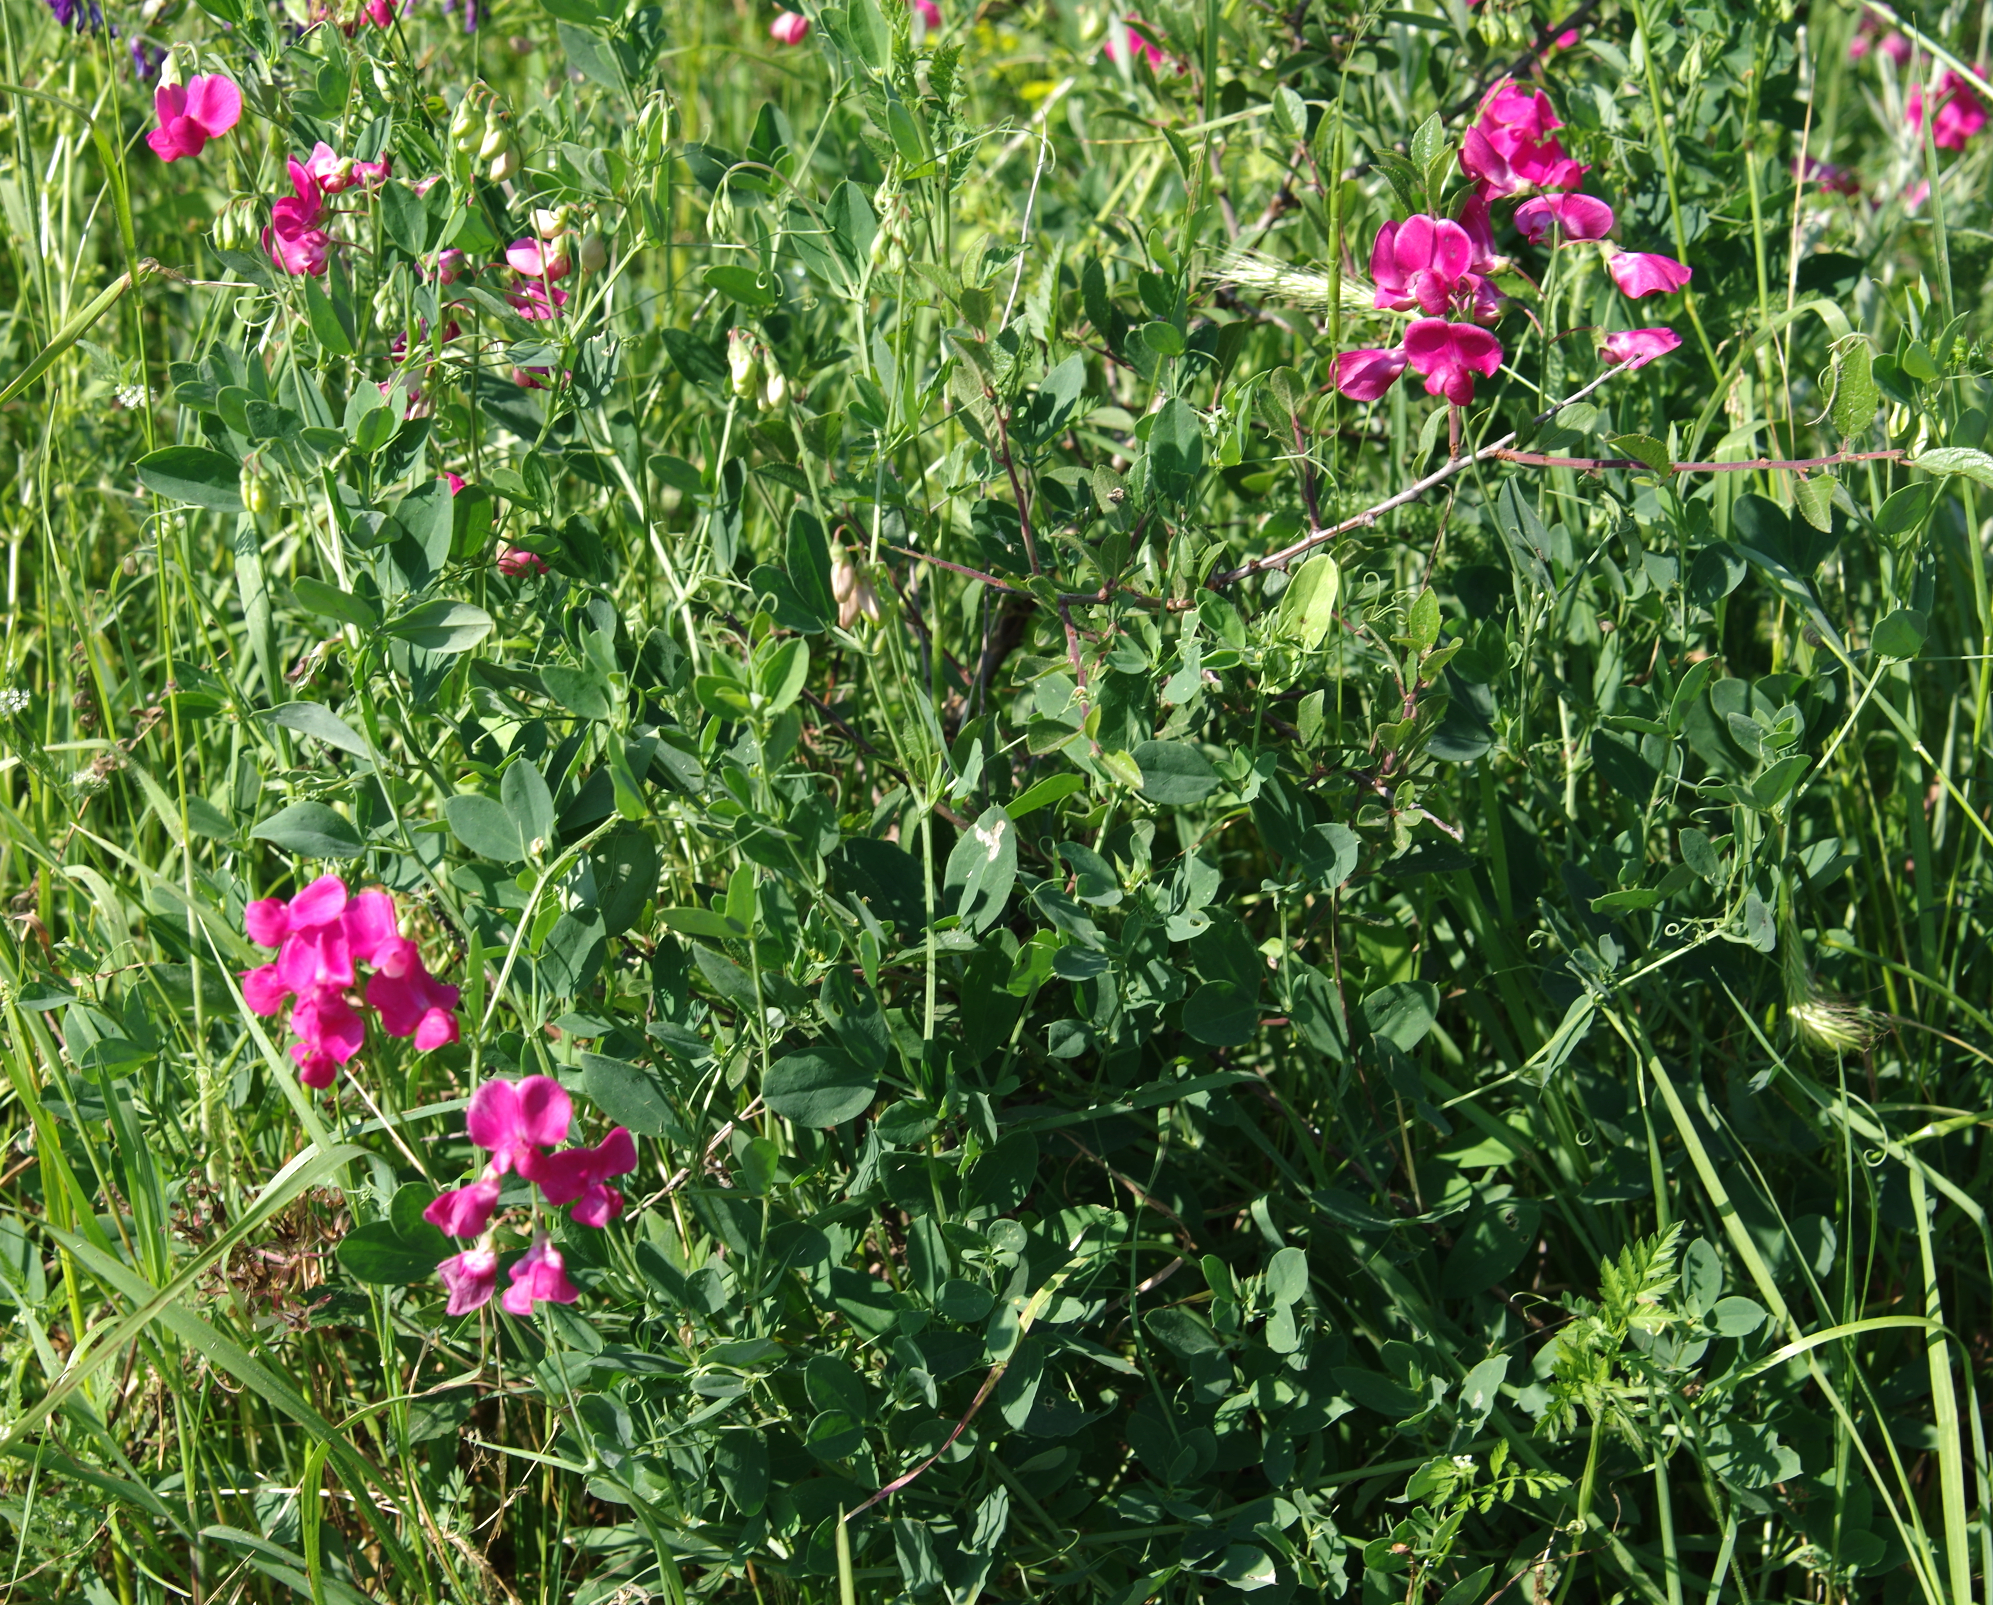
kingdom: Plantae
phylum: Tracheophyta
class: Magnoliopsida
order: Fabales
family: Fabaceae
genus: Lathyrus
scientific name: Lathyrus tuberosus
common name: Tuberous pea
